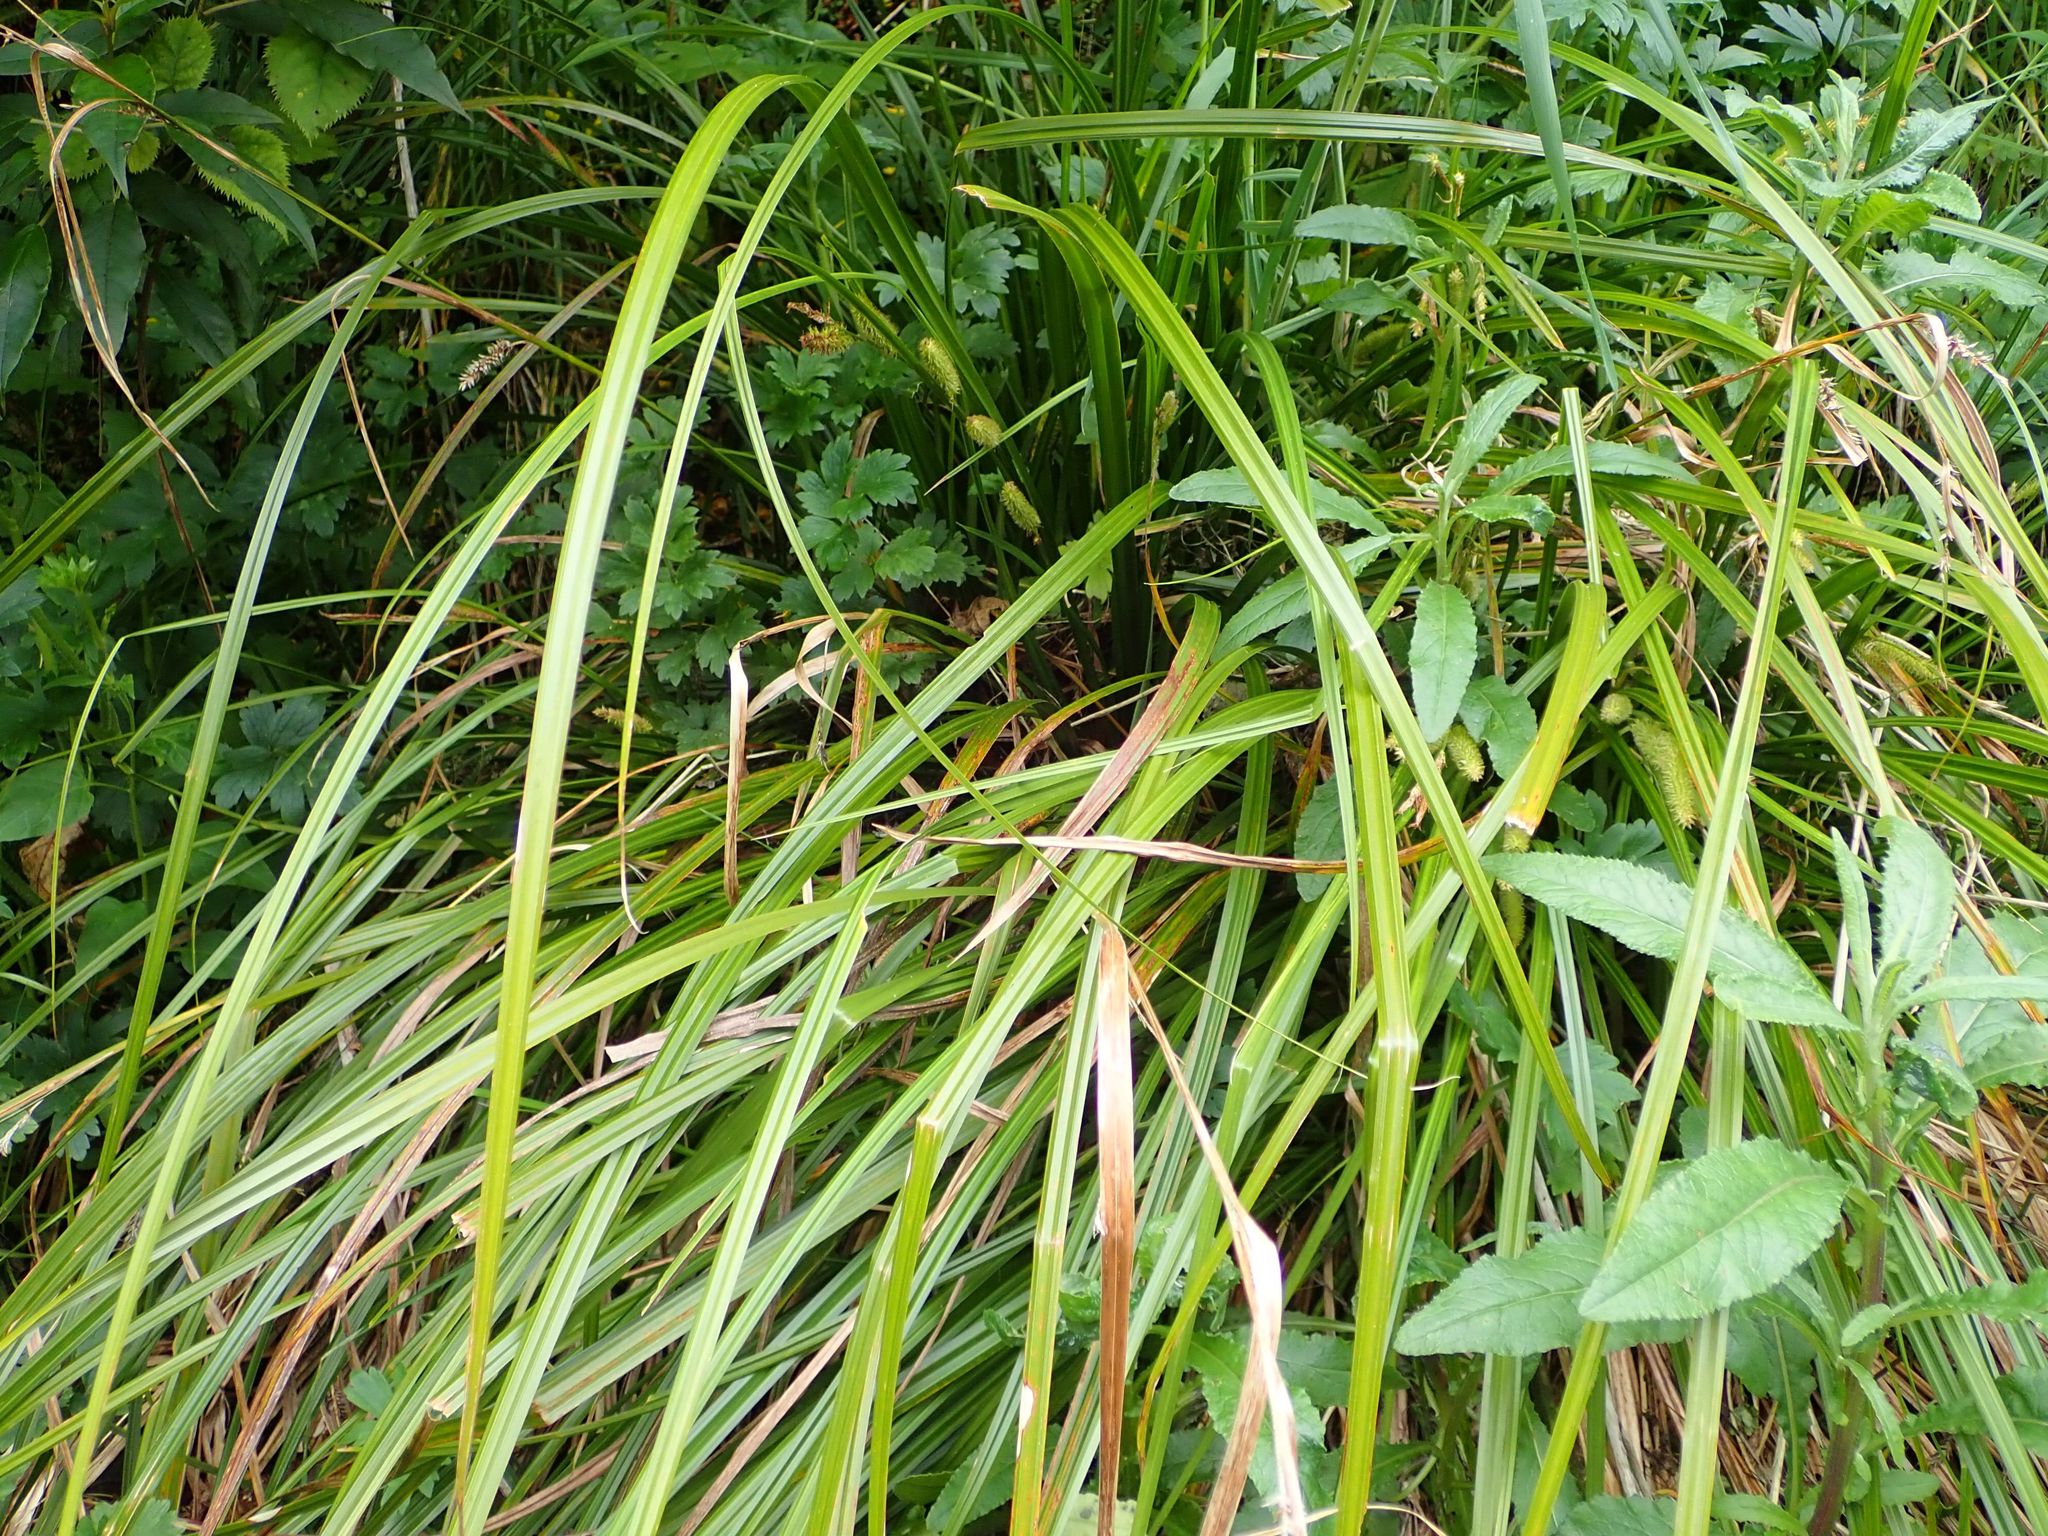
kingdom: Plantae
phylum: Tracheophyta
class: Liliopsida
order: Poales
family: Cyperaceae
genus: Carex
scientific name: Carex forsteri
